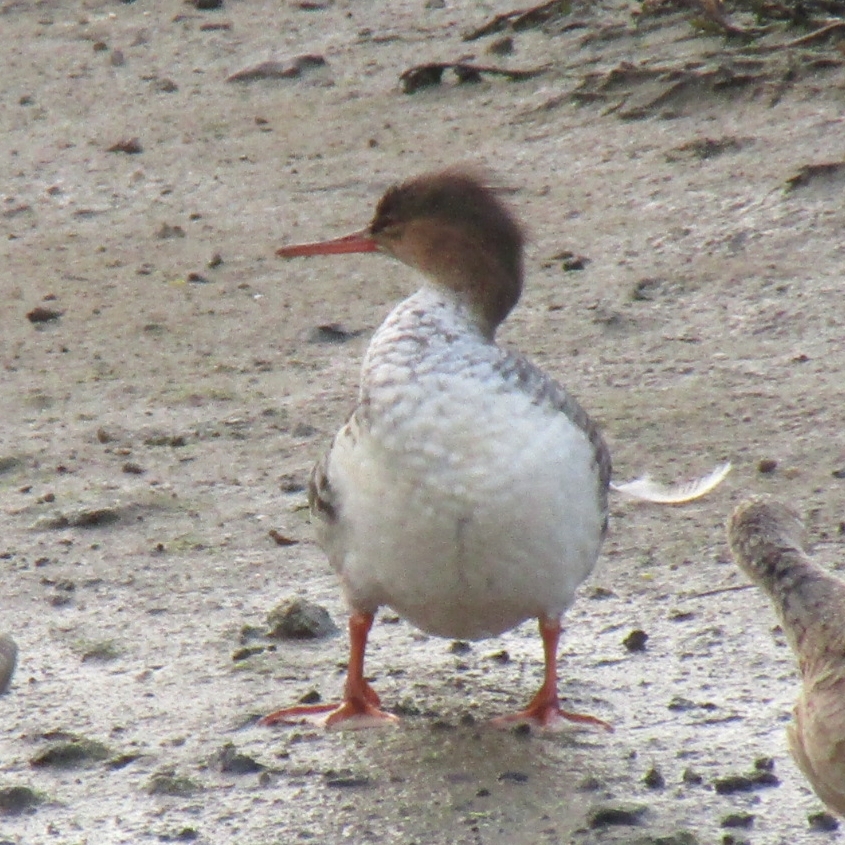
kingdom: Animalia
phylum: Chordata
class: Aves
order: Anseriformes
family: Anatidae
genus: Mergus
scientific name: Mergus serrator
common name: Red-breasted merganser
